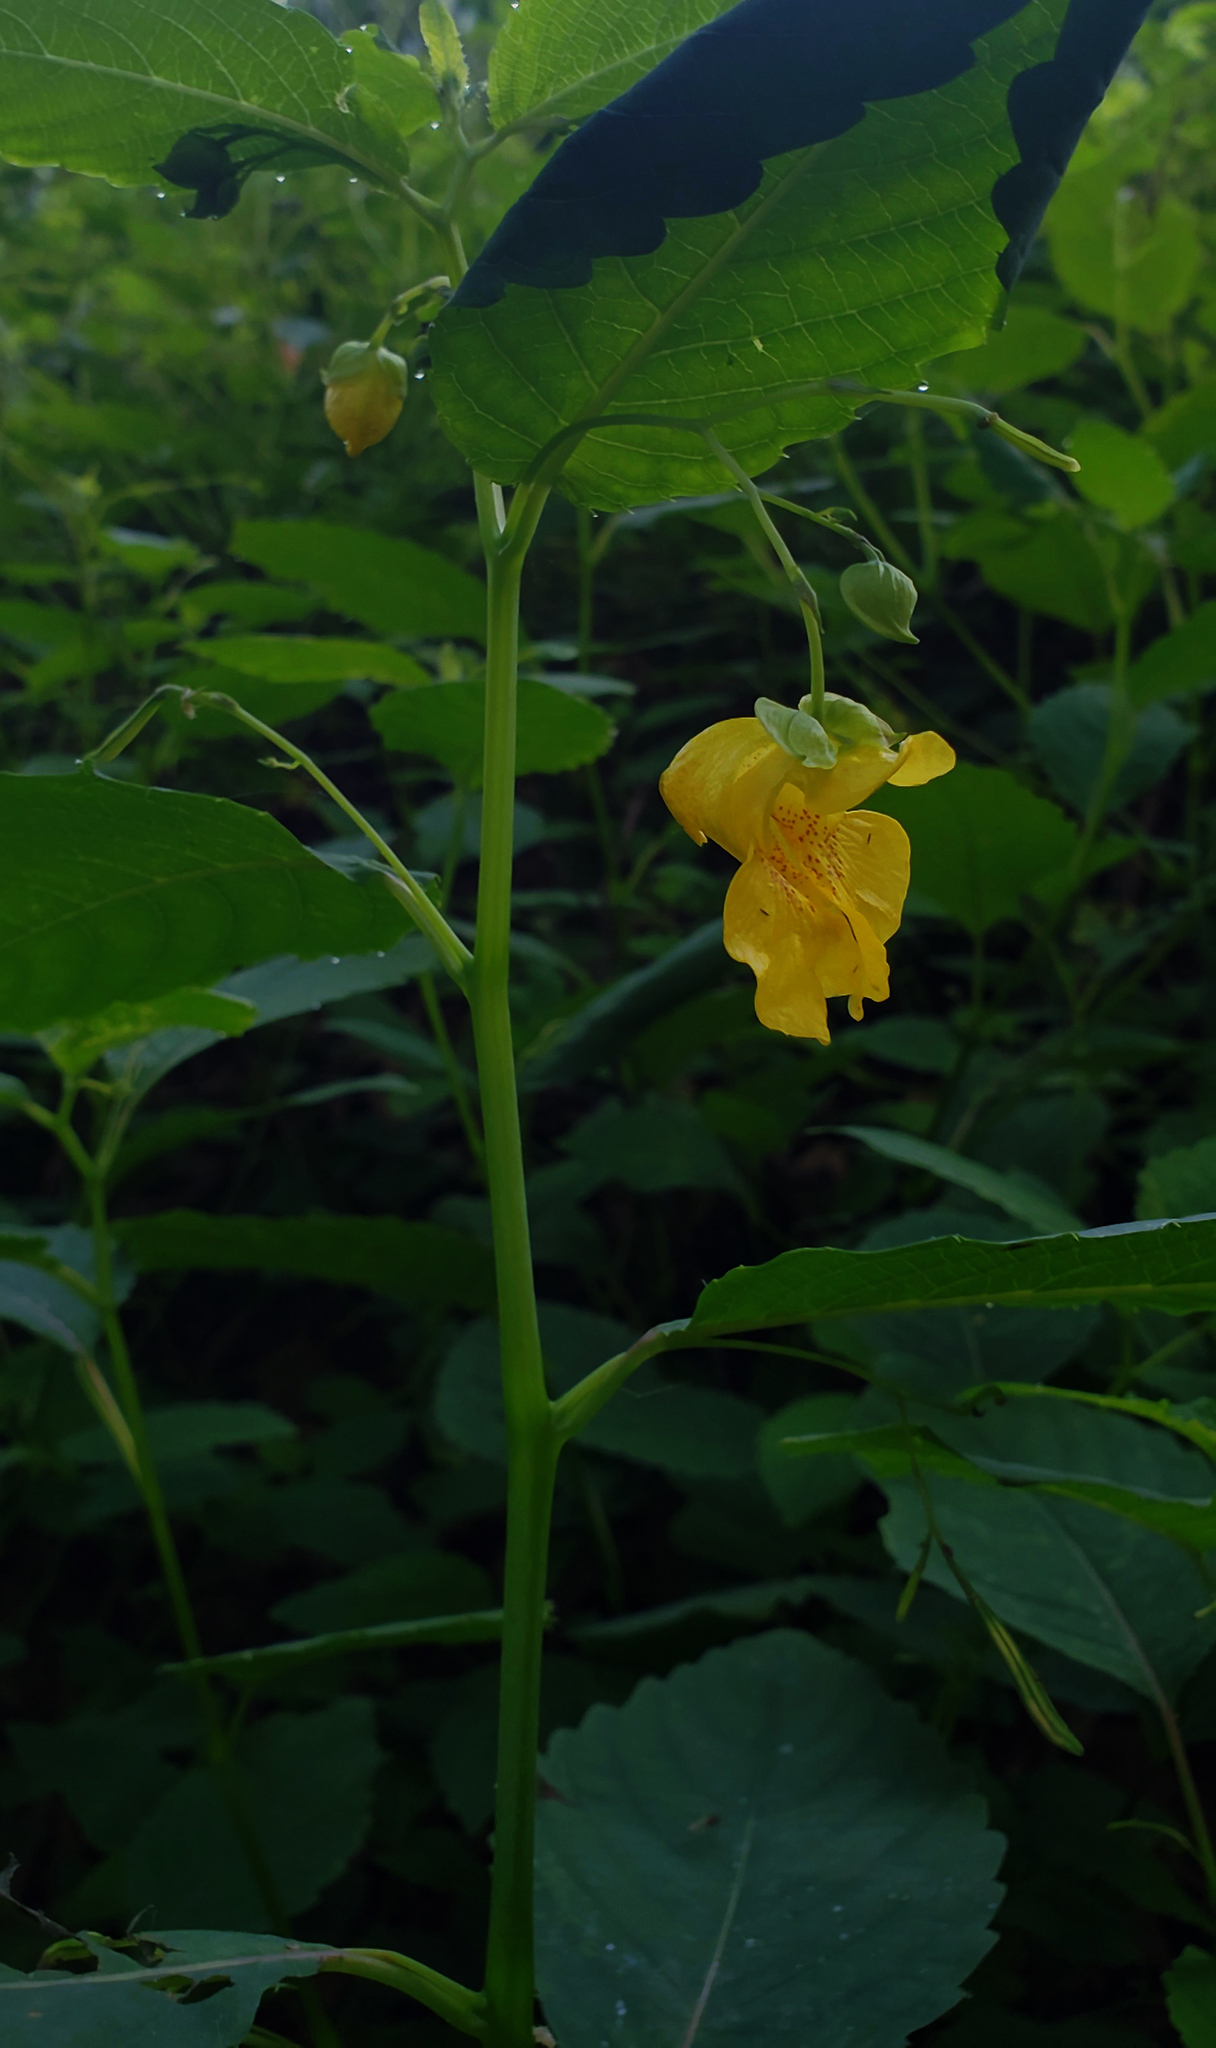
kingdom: Plantae
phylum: Tracheophyta
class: Magnoliopsida
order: Ericales
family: Balsaminaceae
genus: Impatiens
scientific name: Impatiens pallida
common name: Pale snapweed
